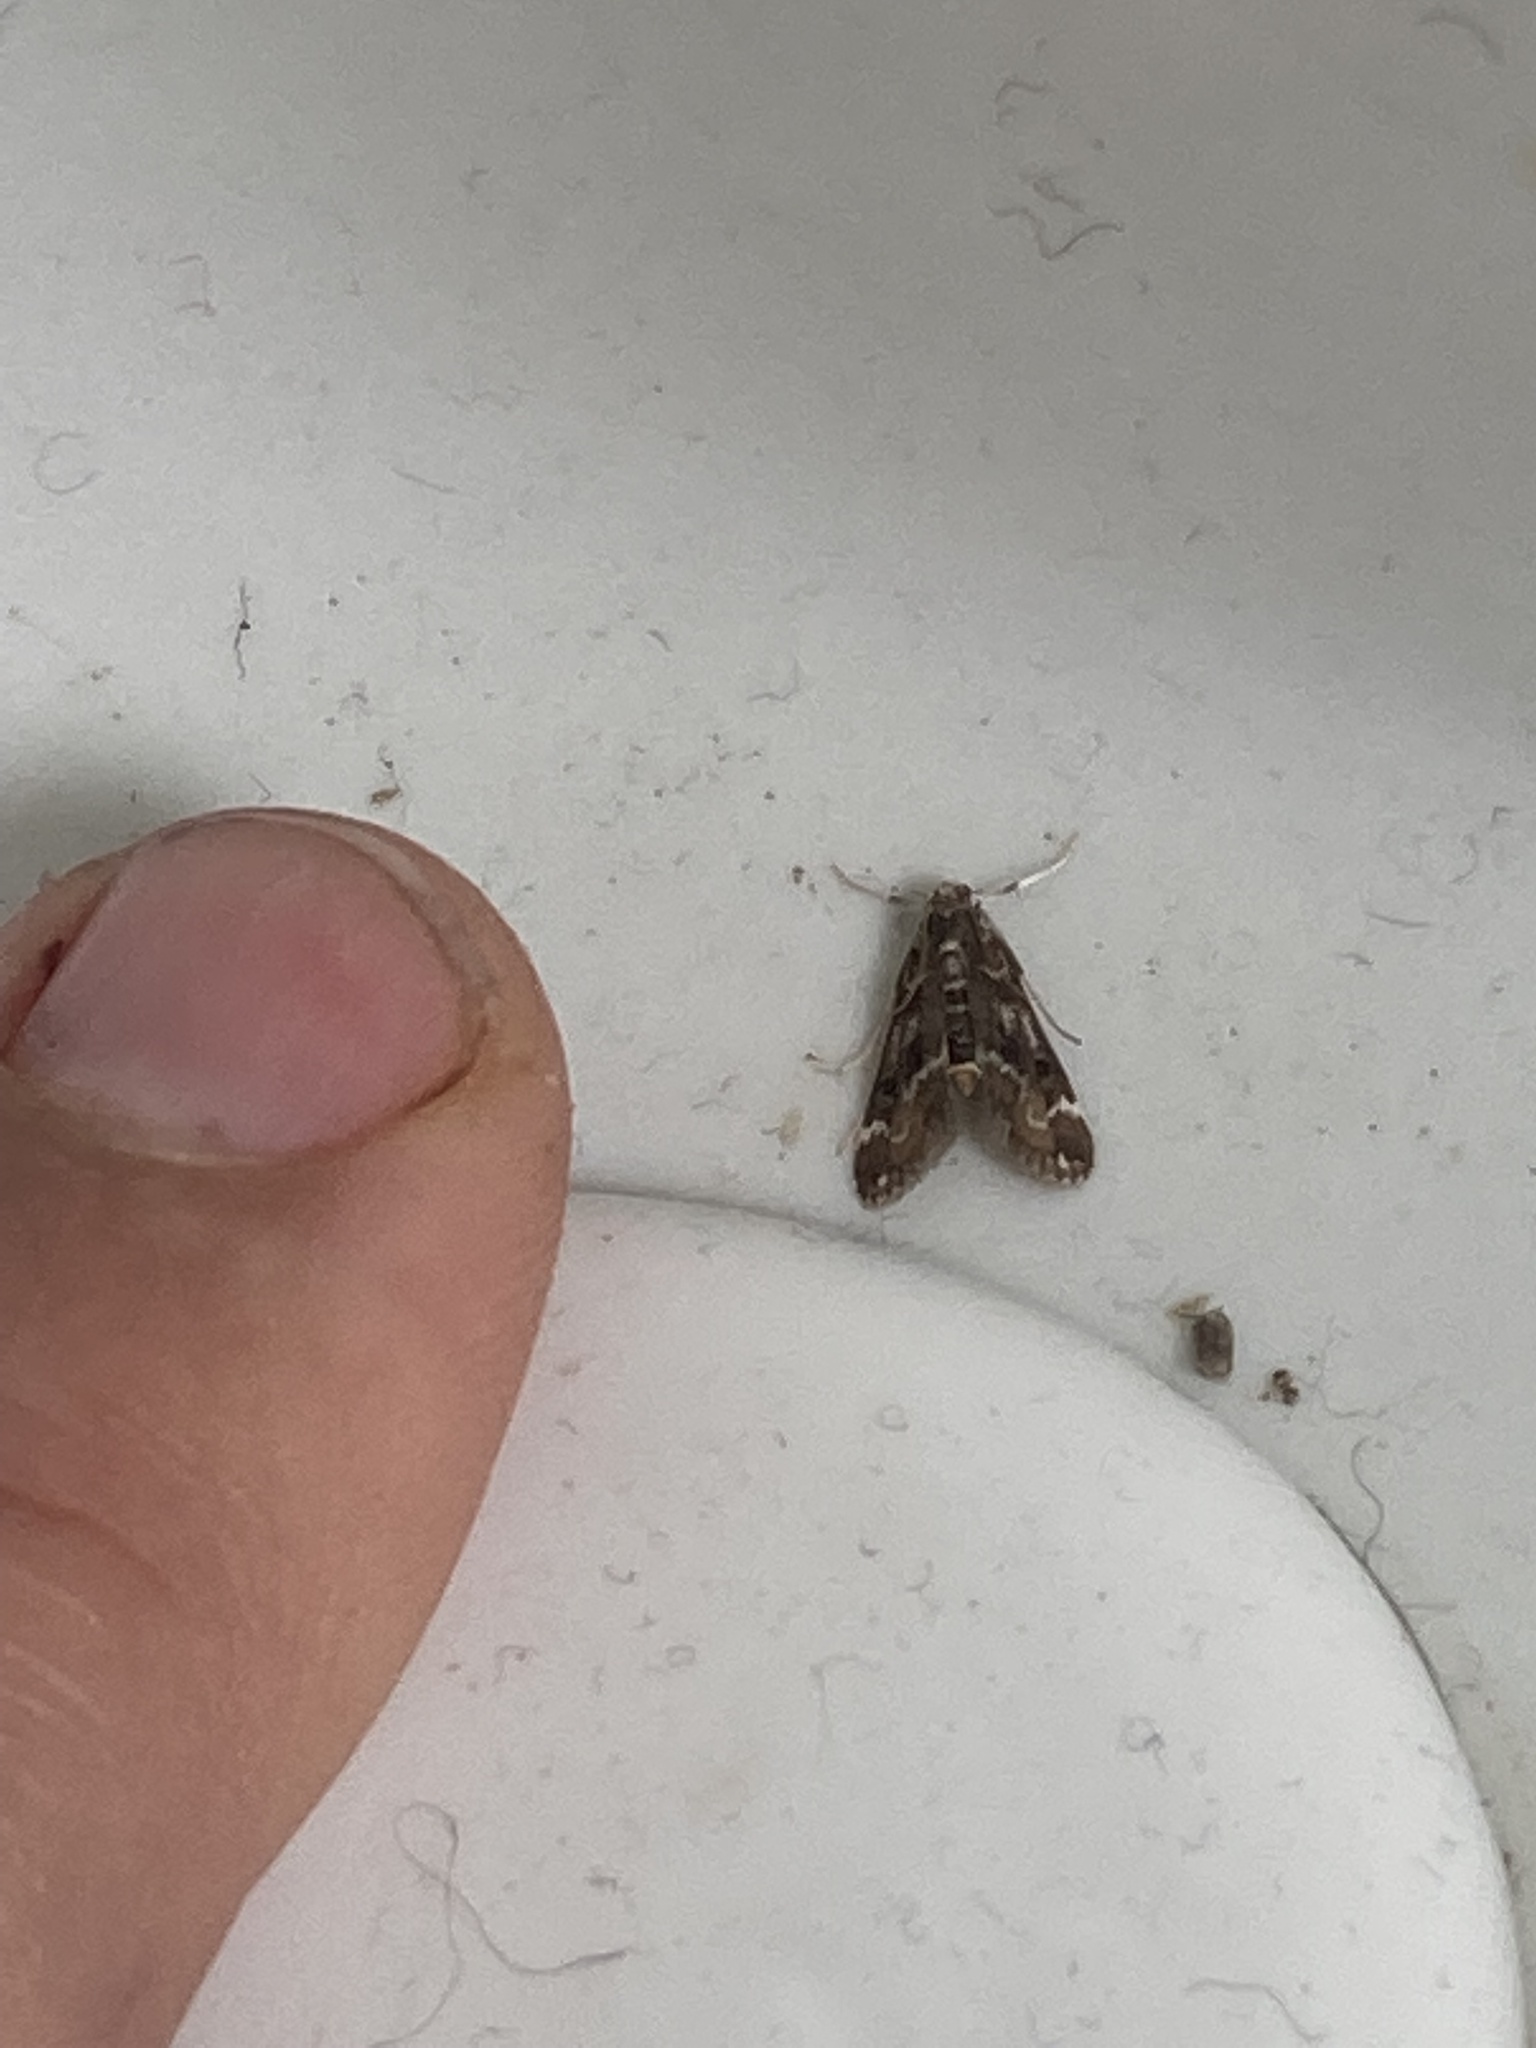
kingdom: Animalia
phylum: Arthropoda
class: Insecta
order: Lepidoptera
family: Crambidae
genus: Hygraula
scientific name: Hygraula nitens
